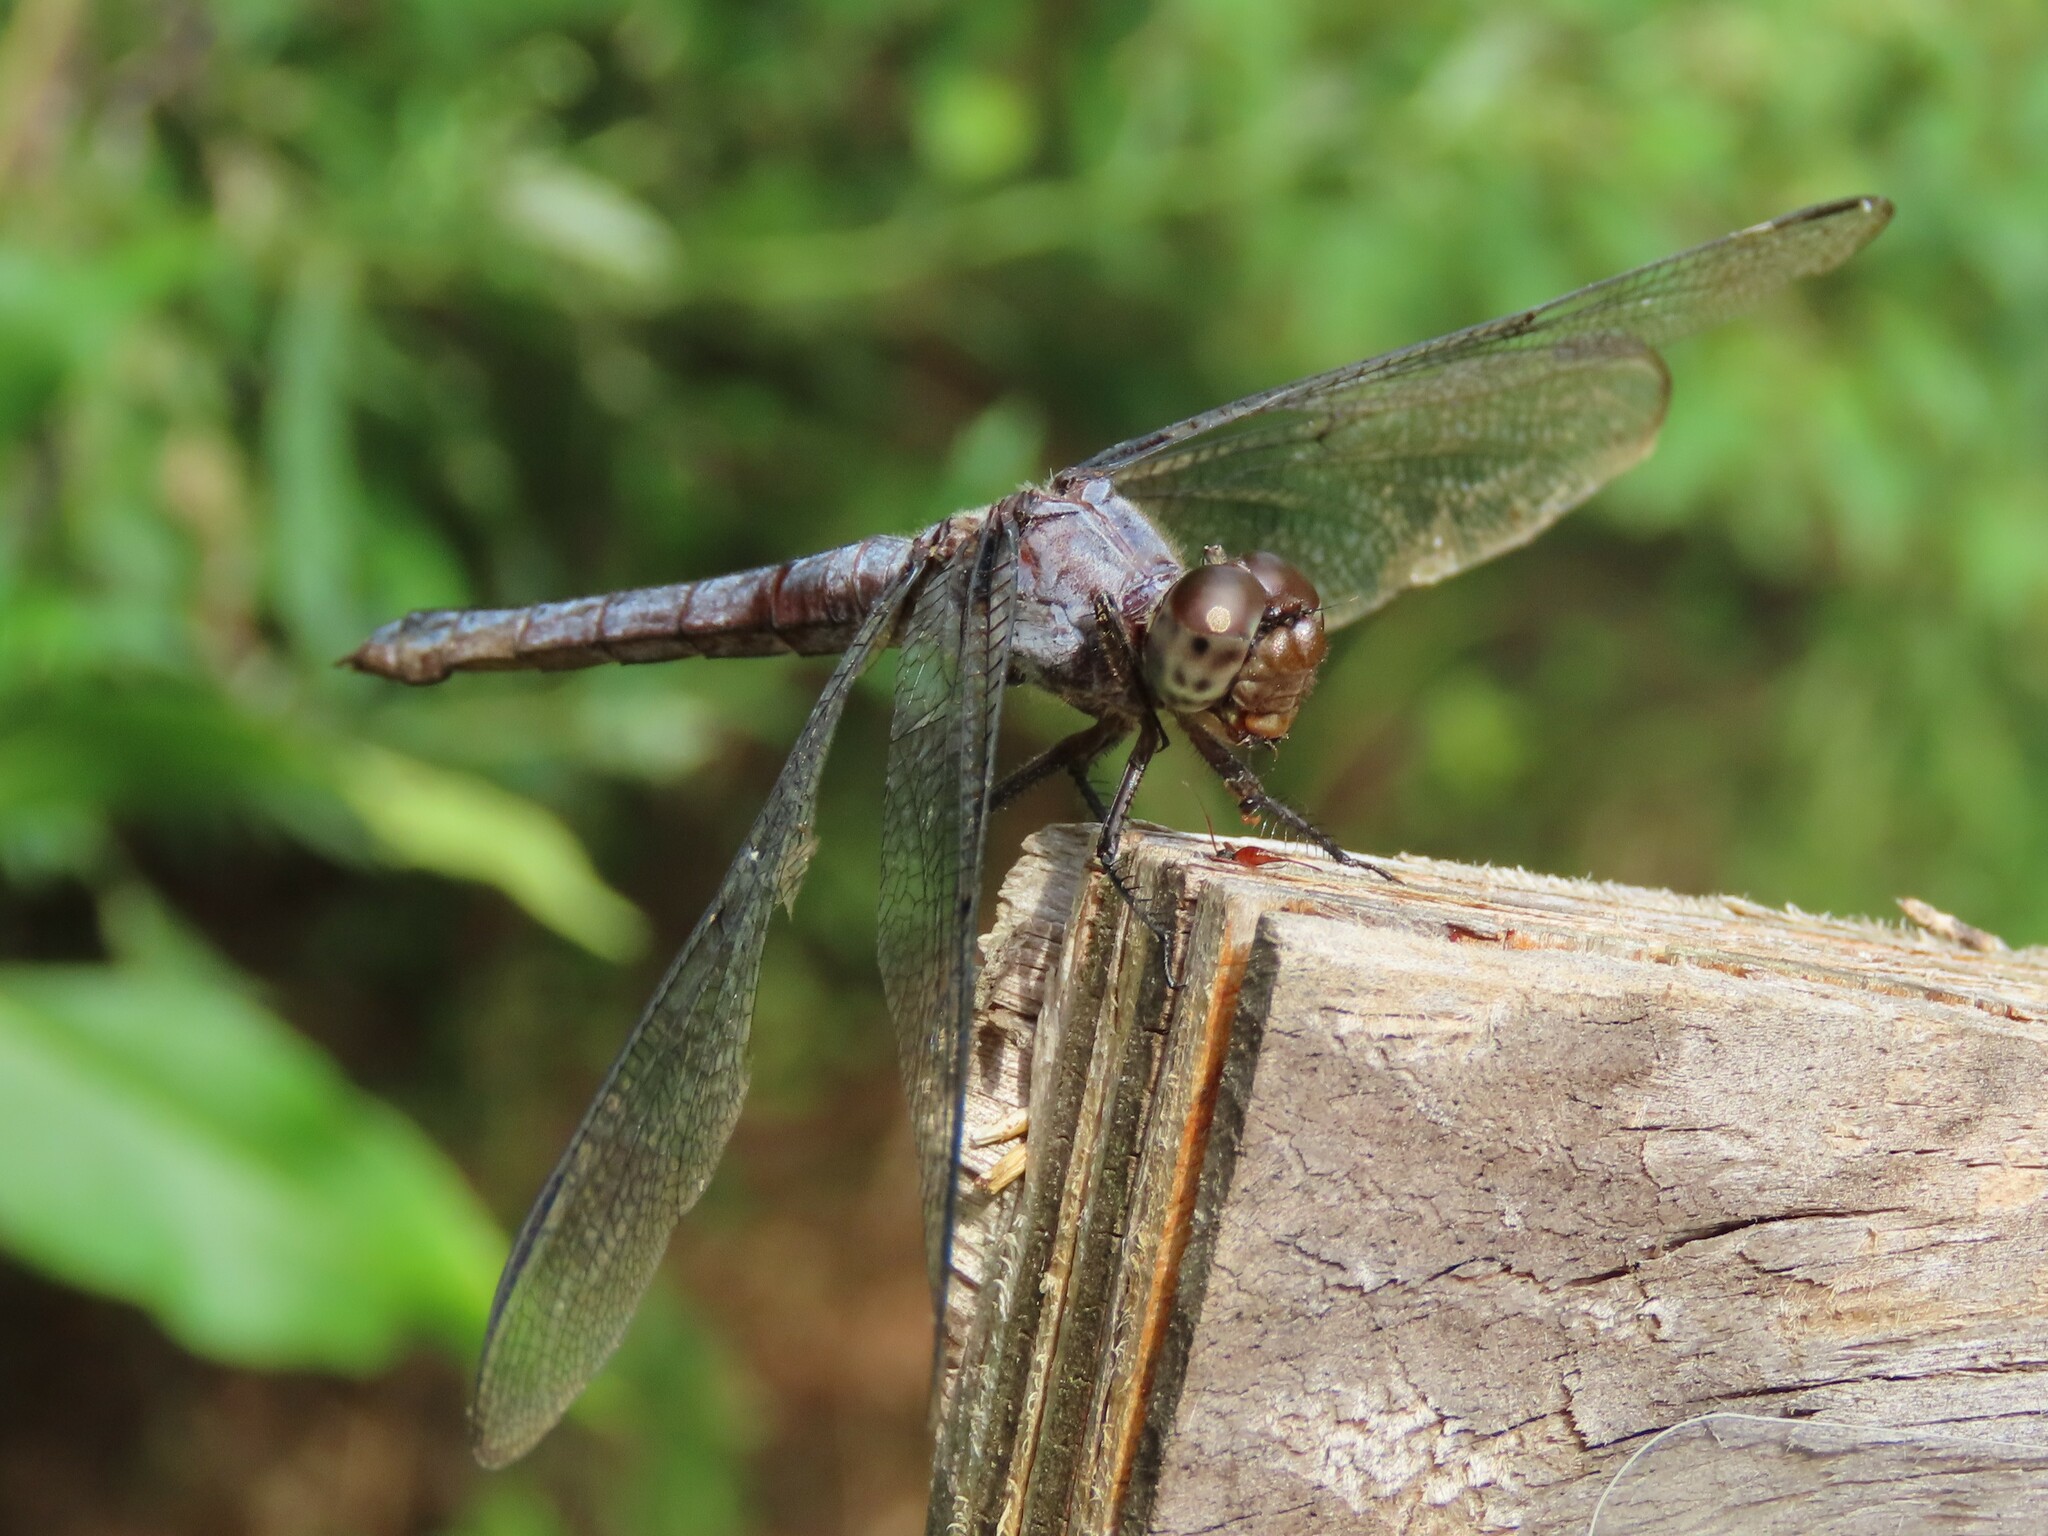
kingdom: Animalia
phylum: Arthropoda
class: Insecta
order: Odonata
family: Libellulidae
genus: Libellula
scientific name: Libellula incesta
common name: Slaty skimmer
